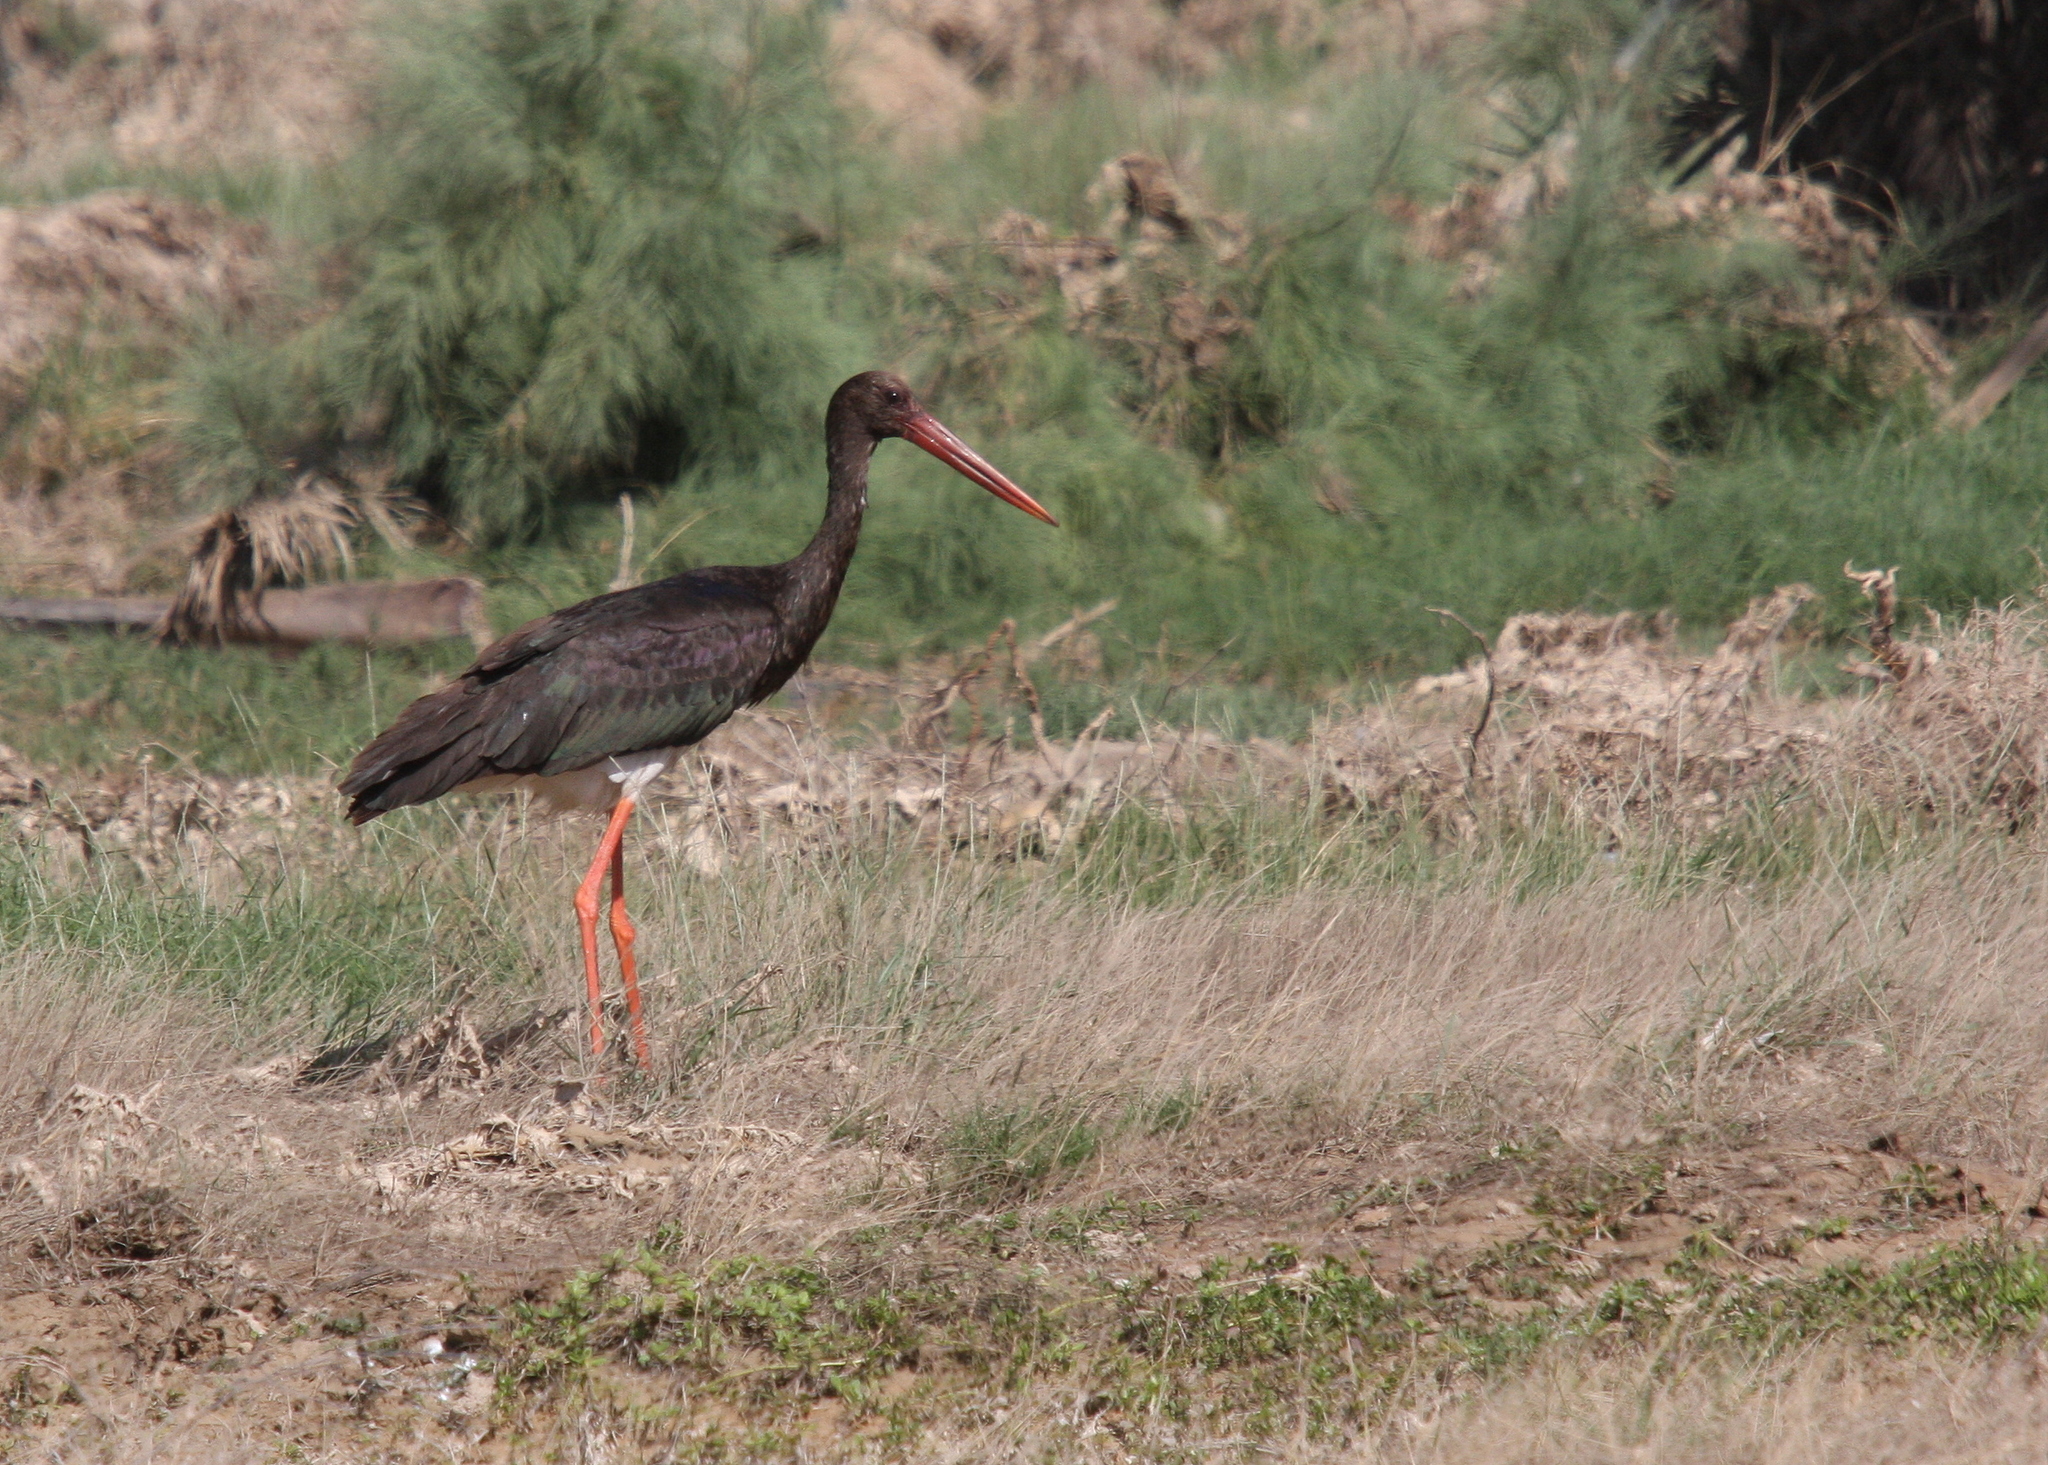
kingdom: Animalia
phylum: Chordata
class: Aves
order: Ciconiiformes
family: Ciconiidae
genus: Ciconia
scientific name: Ciconia nigra
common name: Black stork
